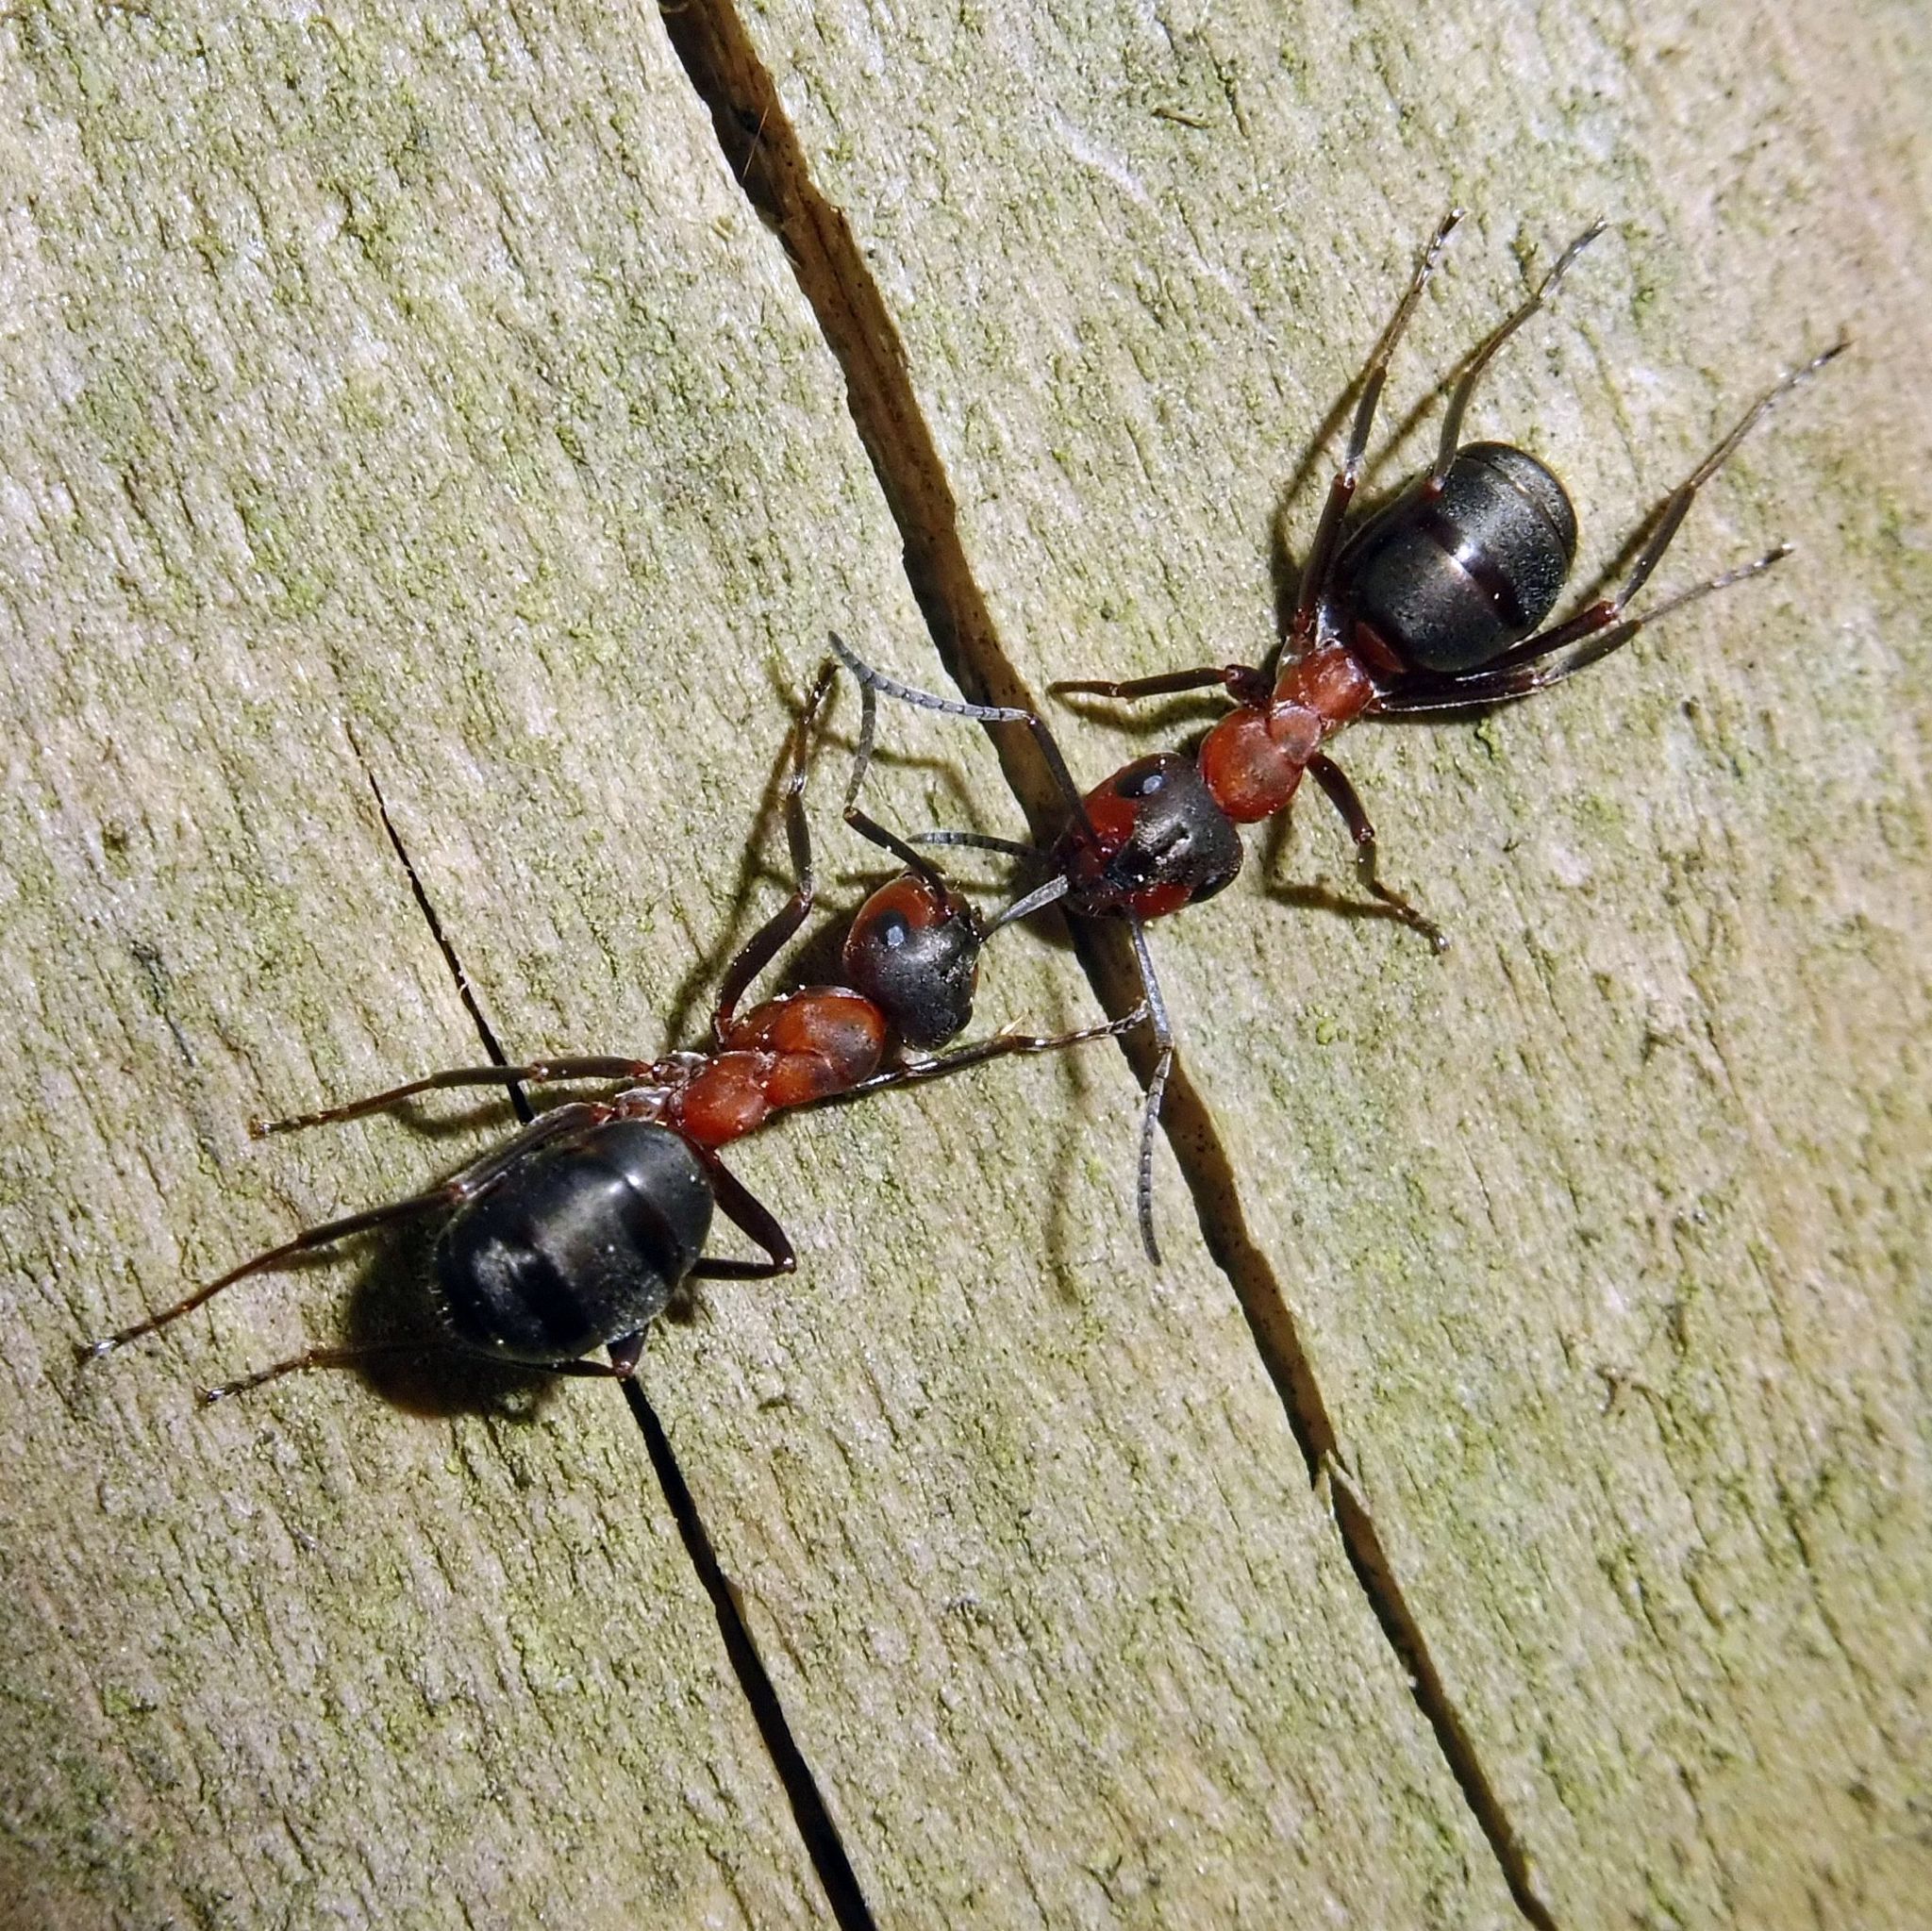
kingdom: Animalia
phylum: Arthropoda
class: Insecta
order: Hymenoptera
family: Formicidae
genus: Formica
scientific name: Formica
